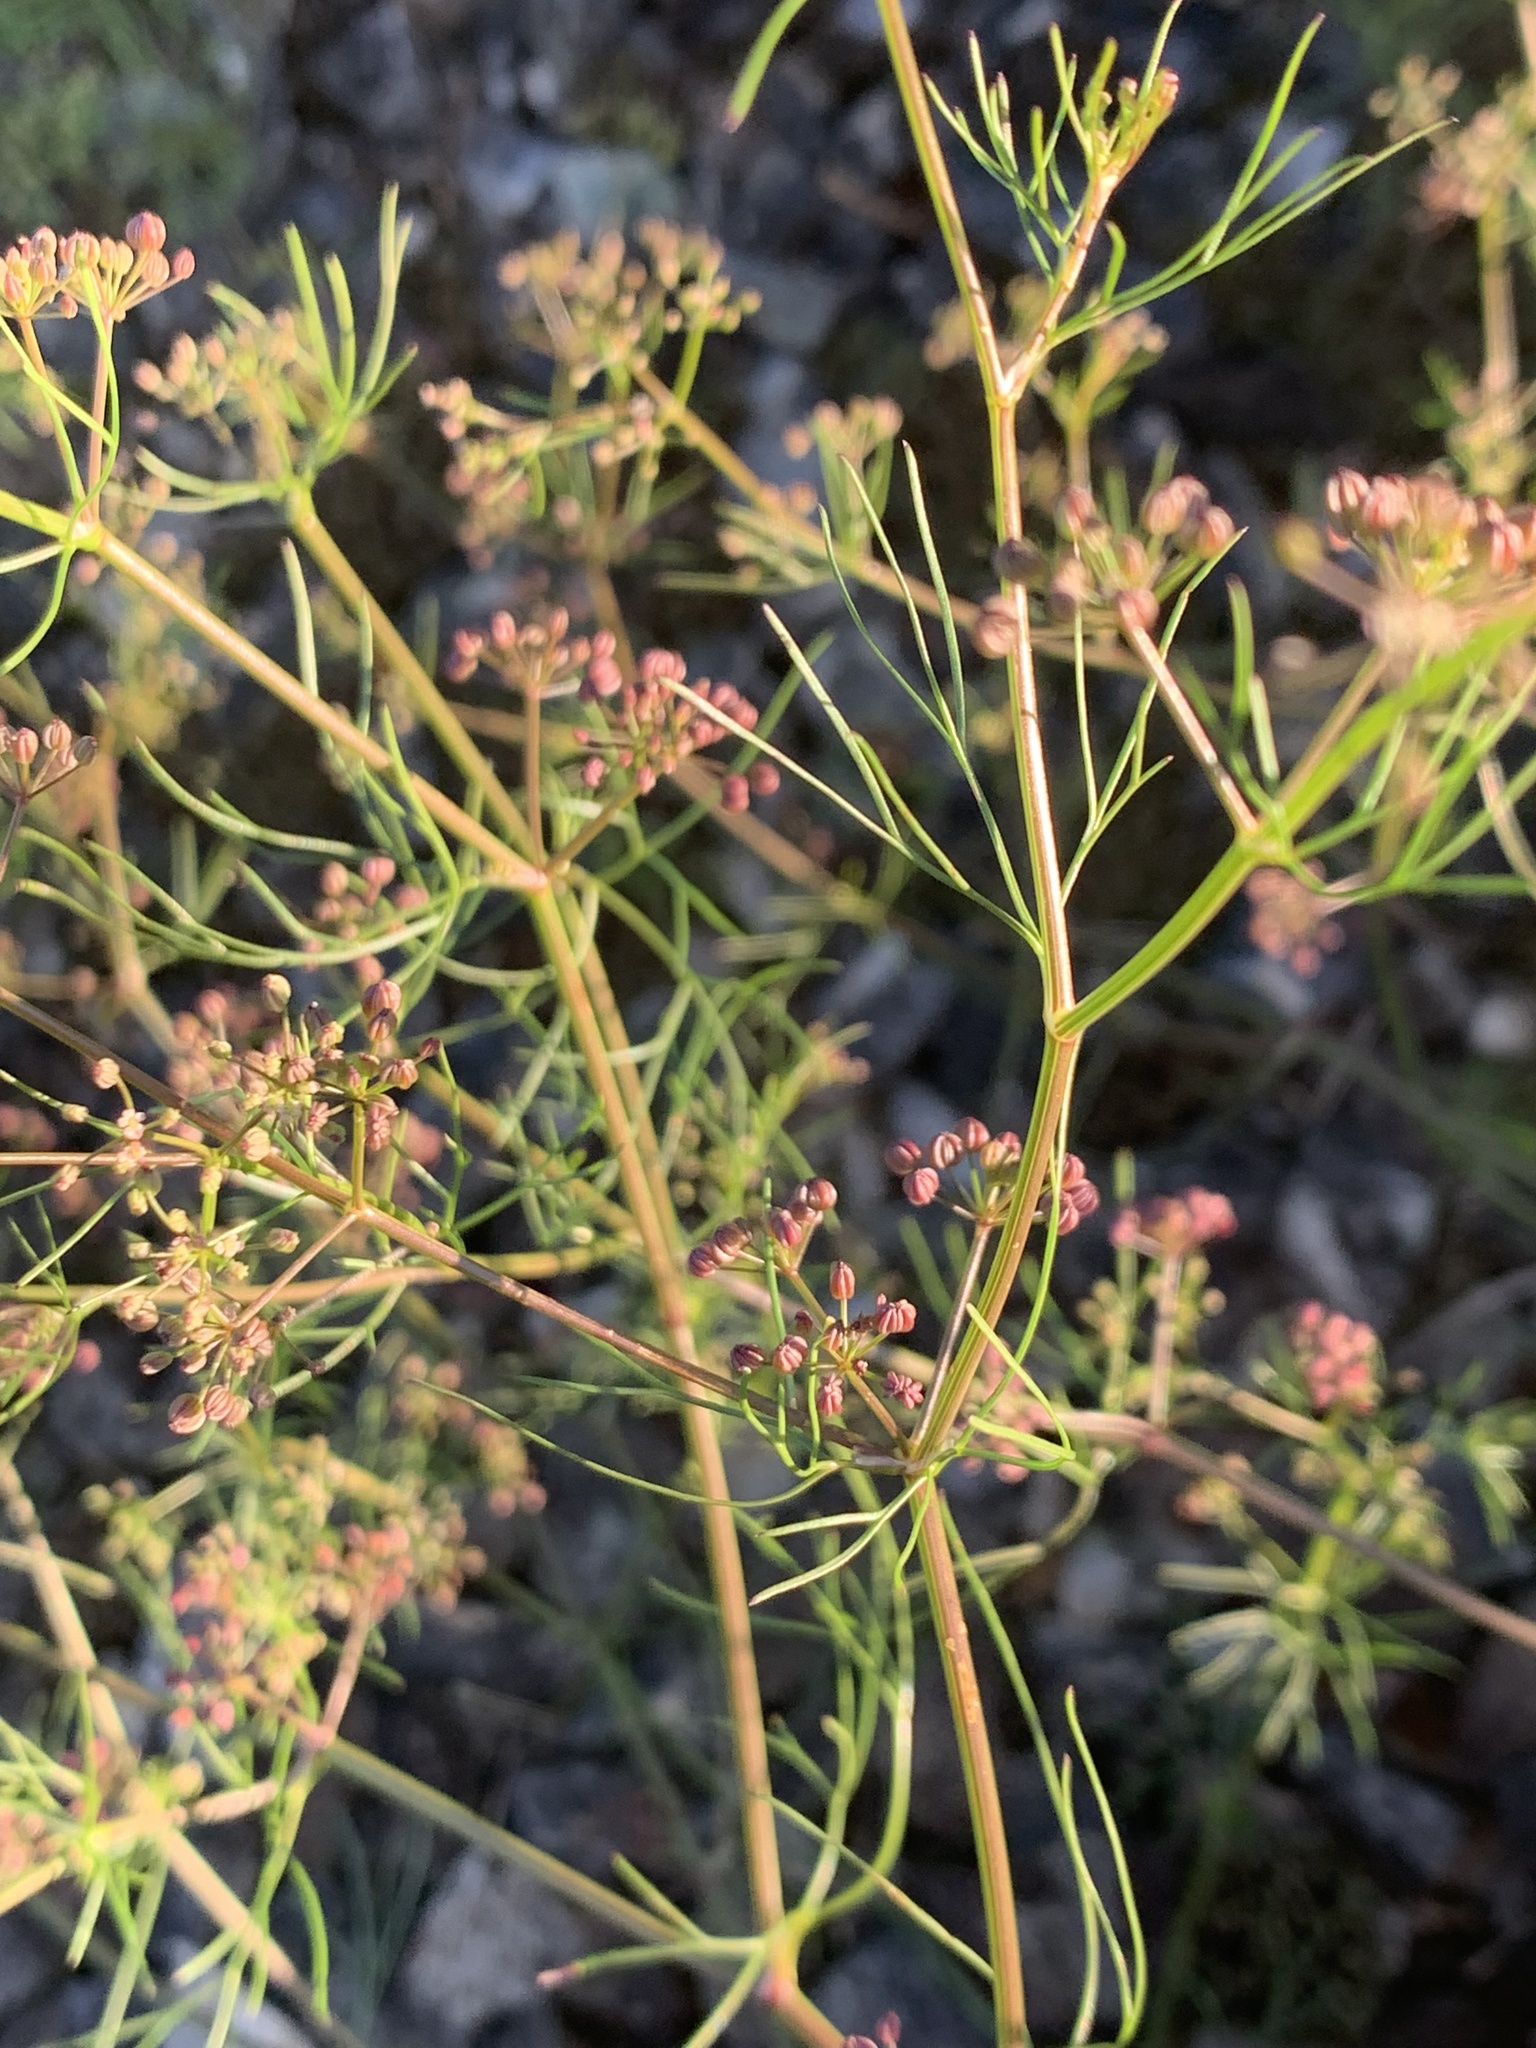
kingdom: Plantae
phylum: Tracheophyta
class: Magnoliopsida
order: Apiales
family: Apiaceae
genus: Cyclospermum
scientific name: Cyclospermum leptophyllum
